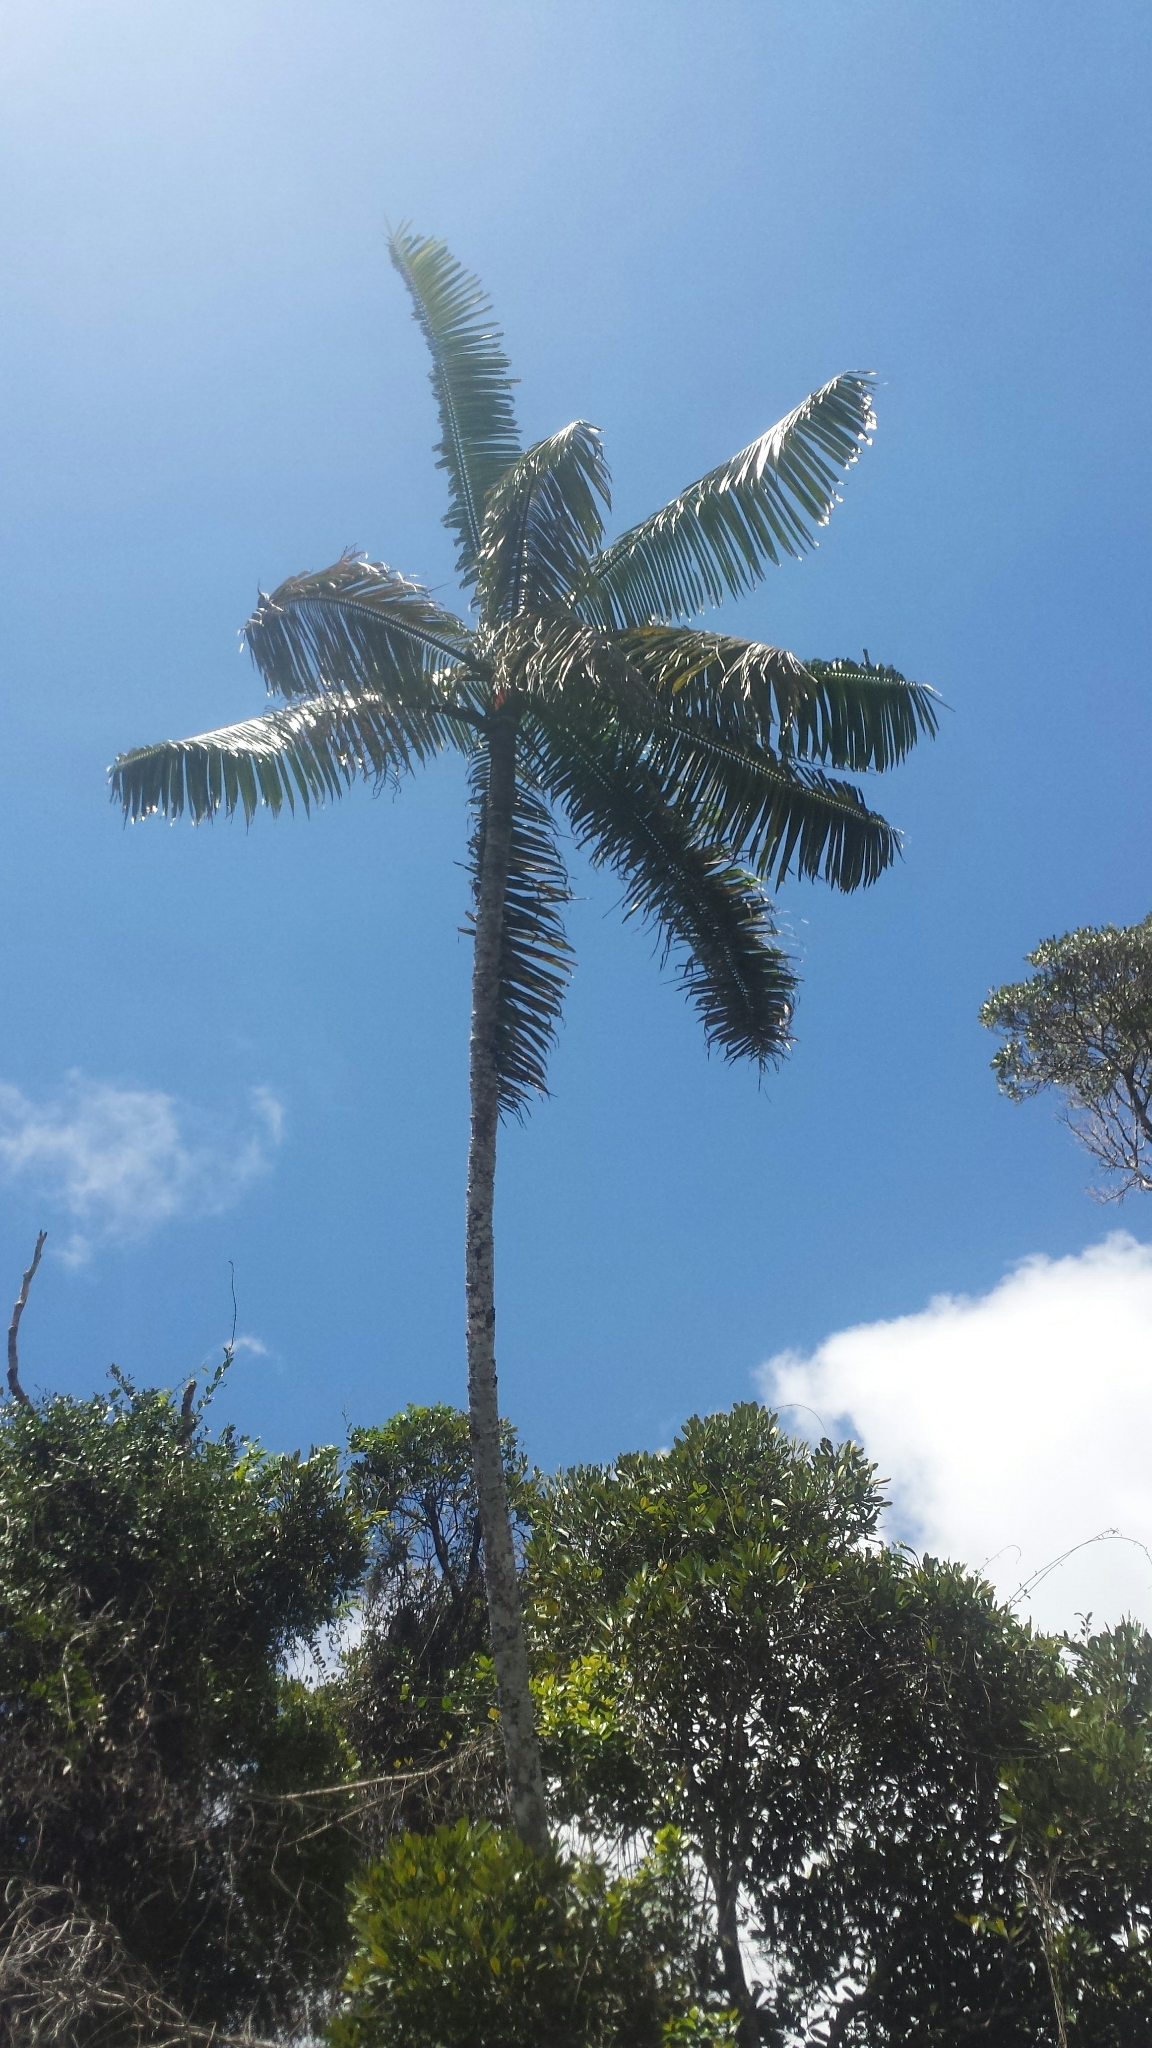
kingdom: Plantae
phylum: Tracheophyta
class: Liliopsida
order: Arecales
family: Arecaceae
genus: Dypsis
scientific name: Dypsis lastelliana
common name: Redneck palm
